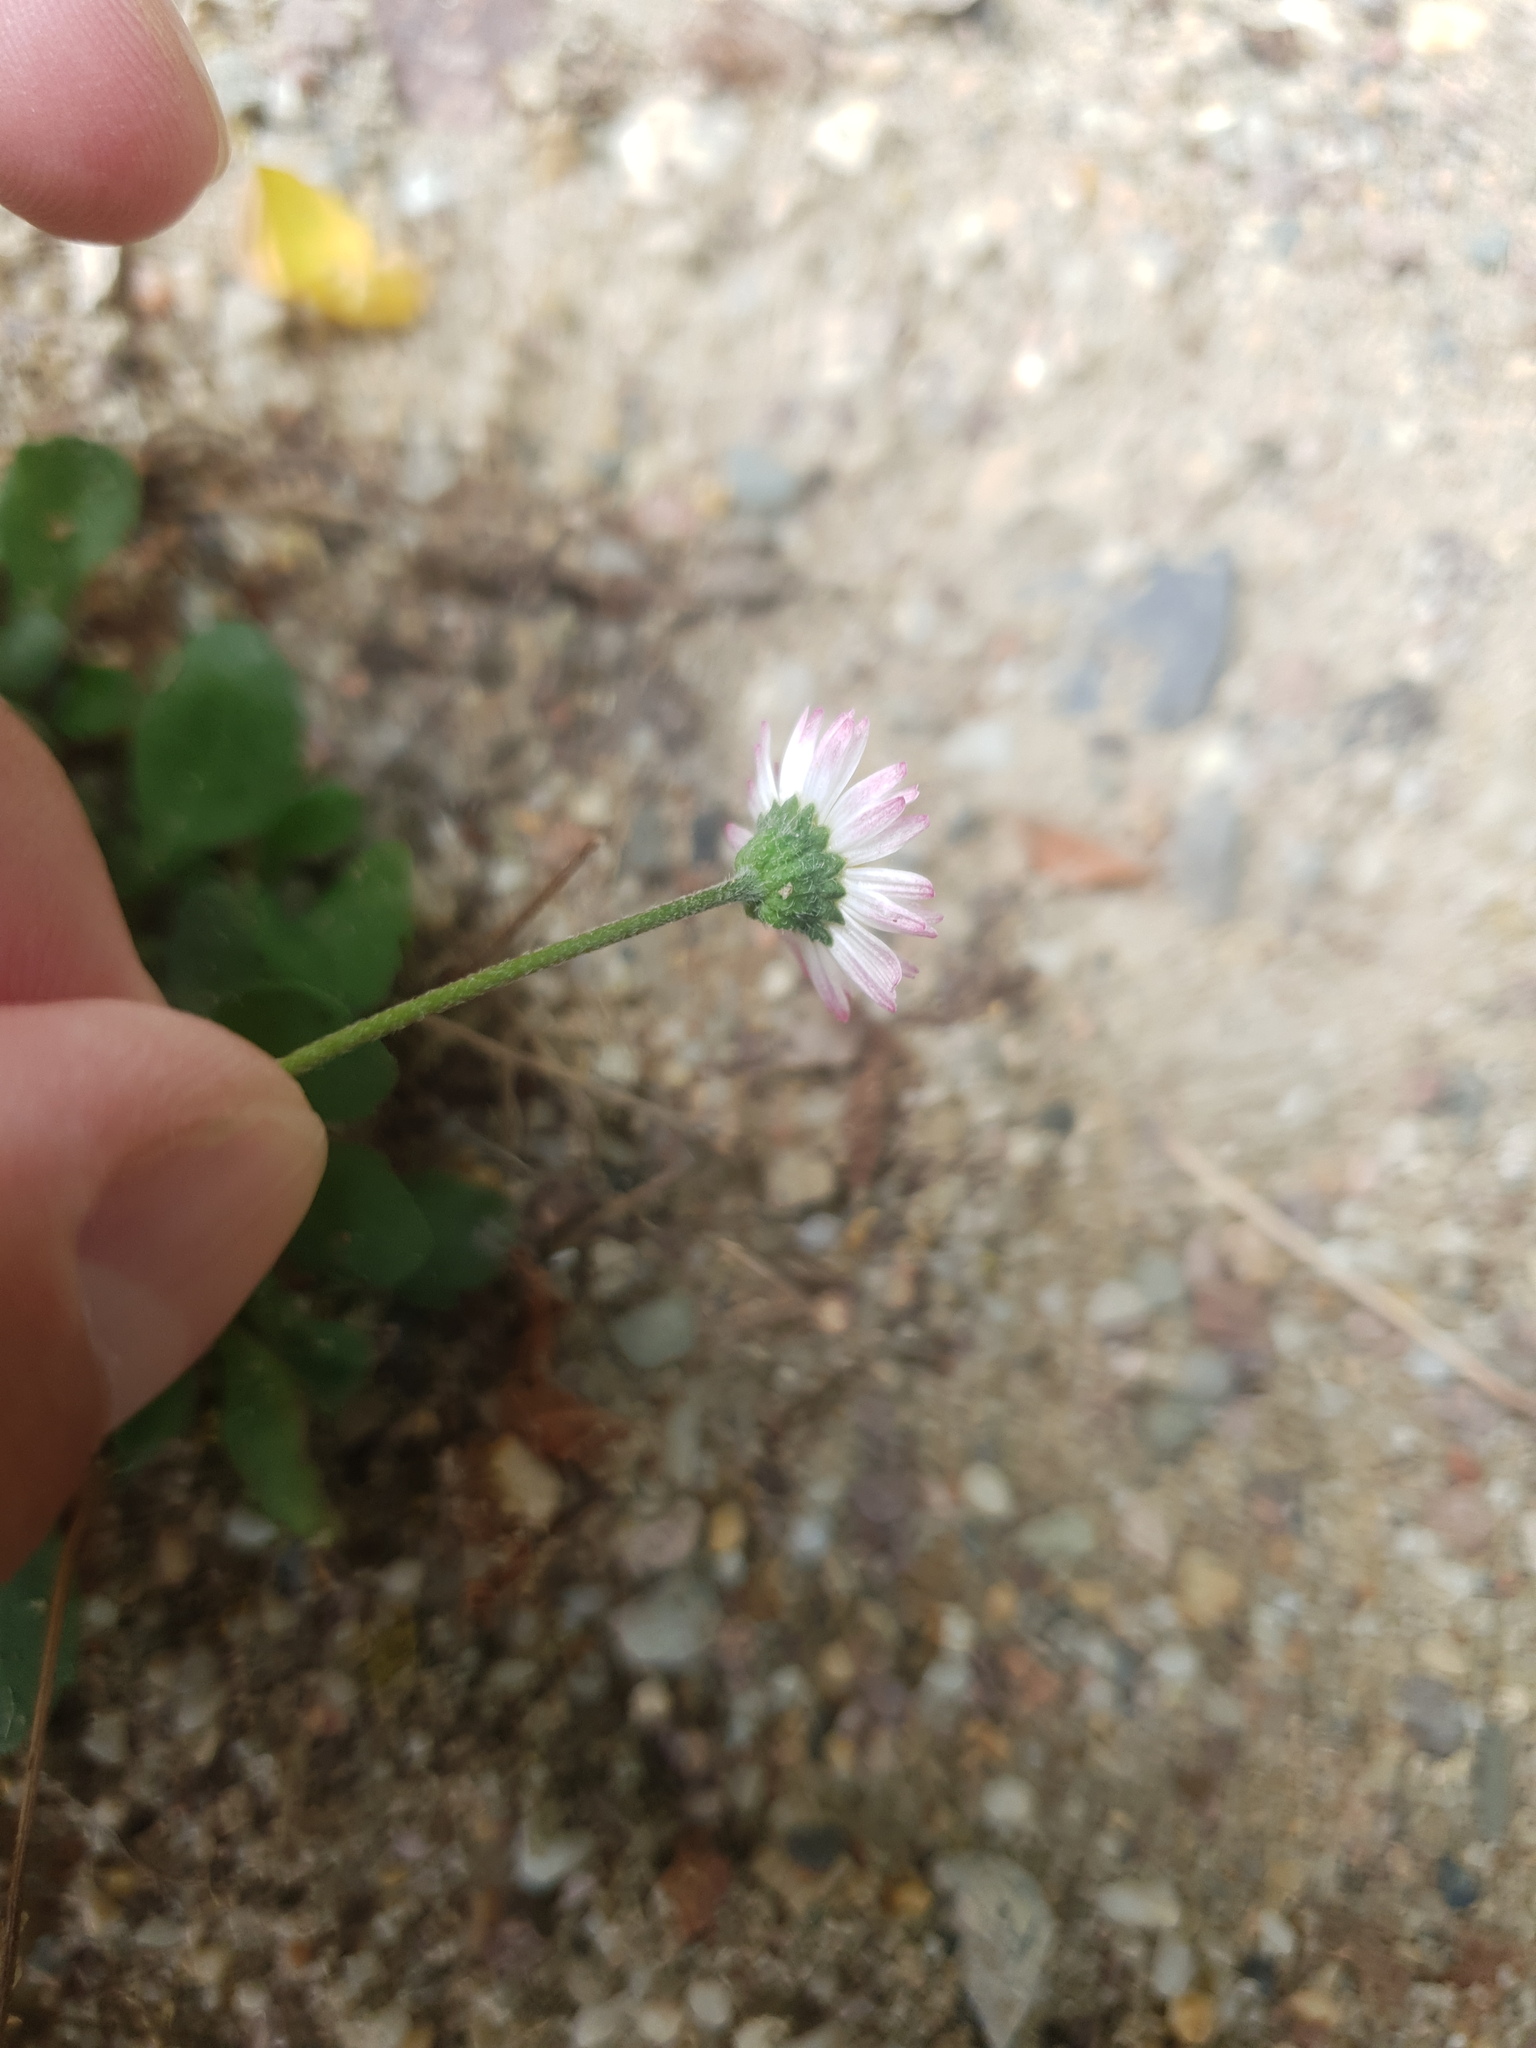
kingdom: Plantae
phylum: Tracheophyta
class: Magnoliopsida
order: Asterales
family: Asteraceae
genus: Bellis
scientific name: Bellis perennis
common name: Lawndaisy
